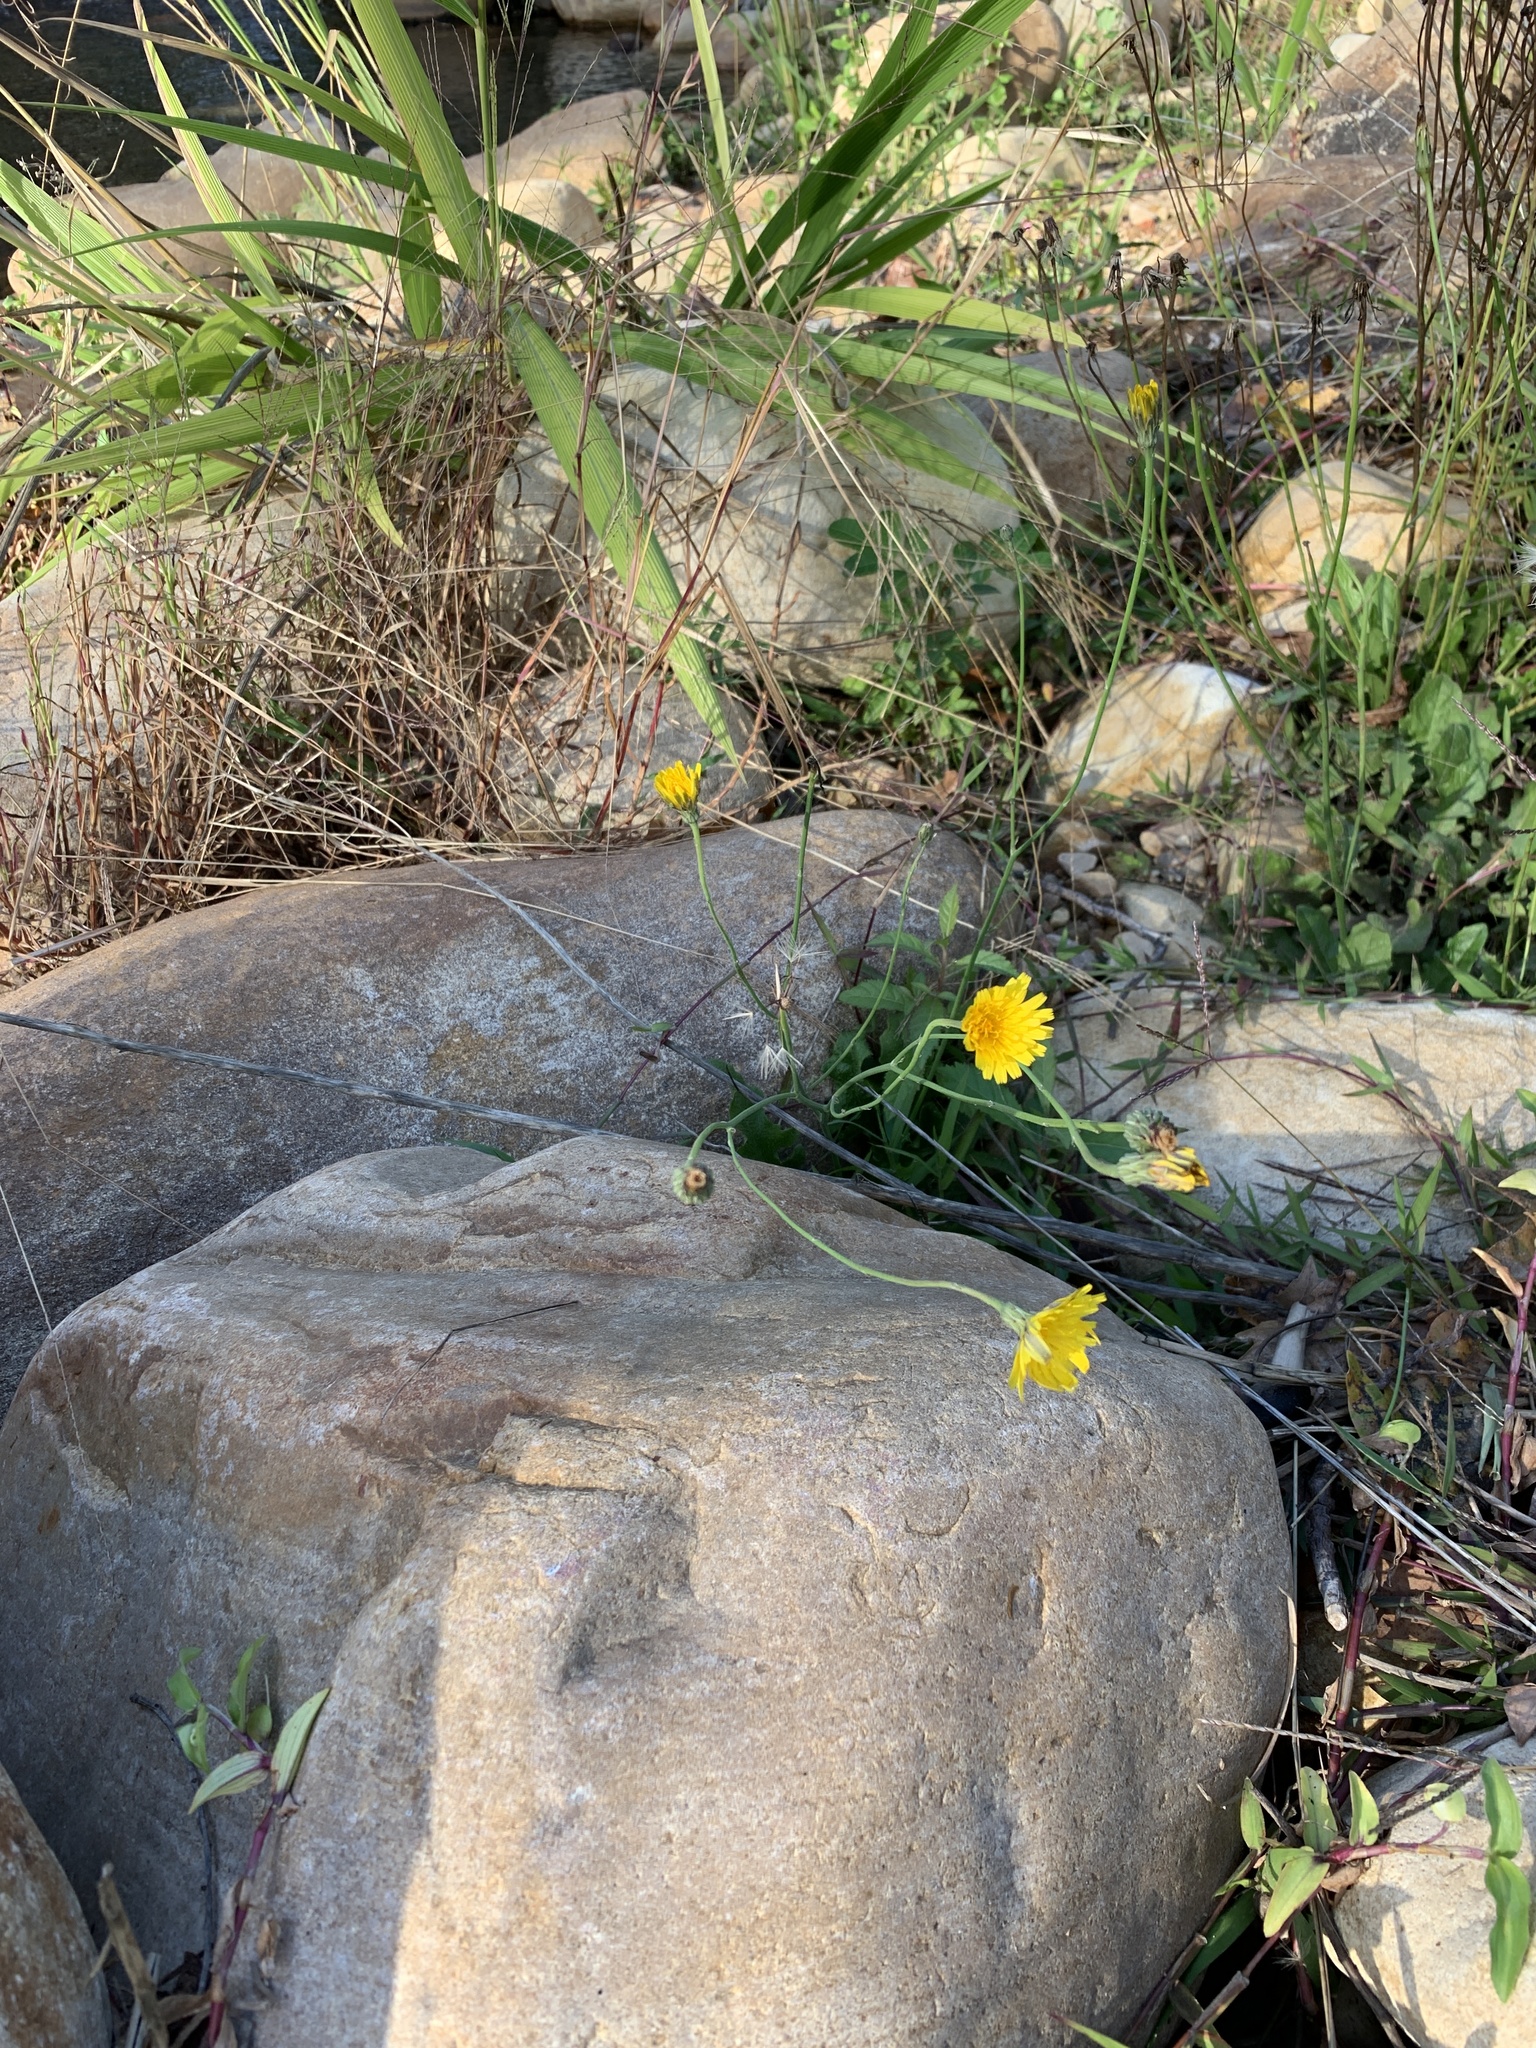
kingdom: Plantae
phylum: Tracheophyta
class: Magnoliopsida
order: Asterales
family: Asteraceae
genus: Hypochaeris
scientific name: Hypochaeris radicata
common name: Flatweed
